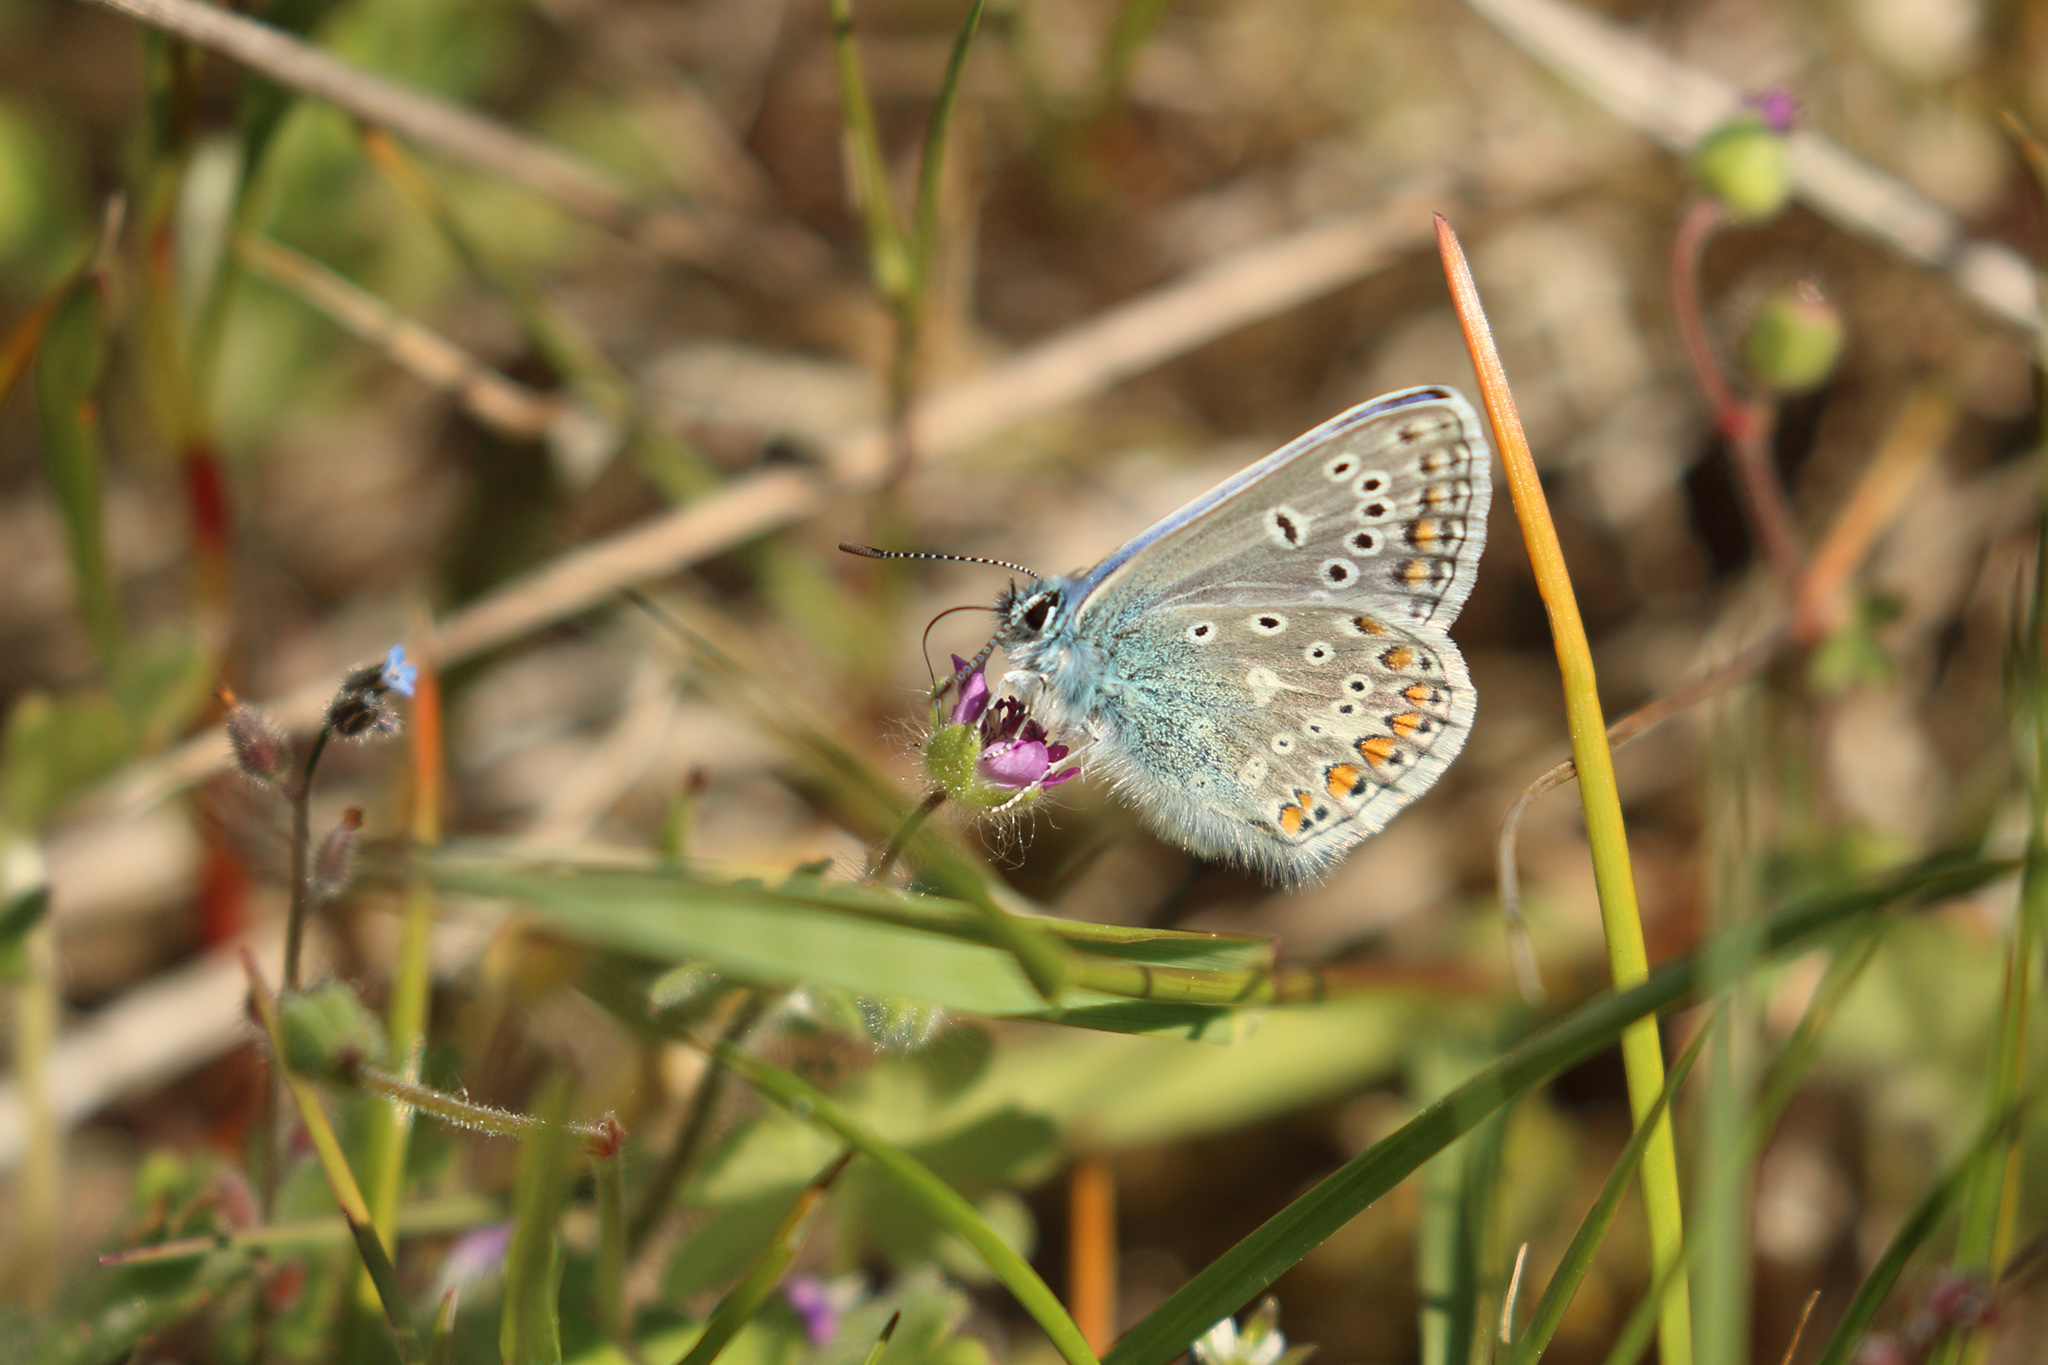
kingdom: Animalia
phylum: Arthropoda
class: Insecta
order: Lepidoptera
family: Lycaenidae
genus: Polyommatus
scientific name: Polyommatus icarus
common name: Common blue
